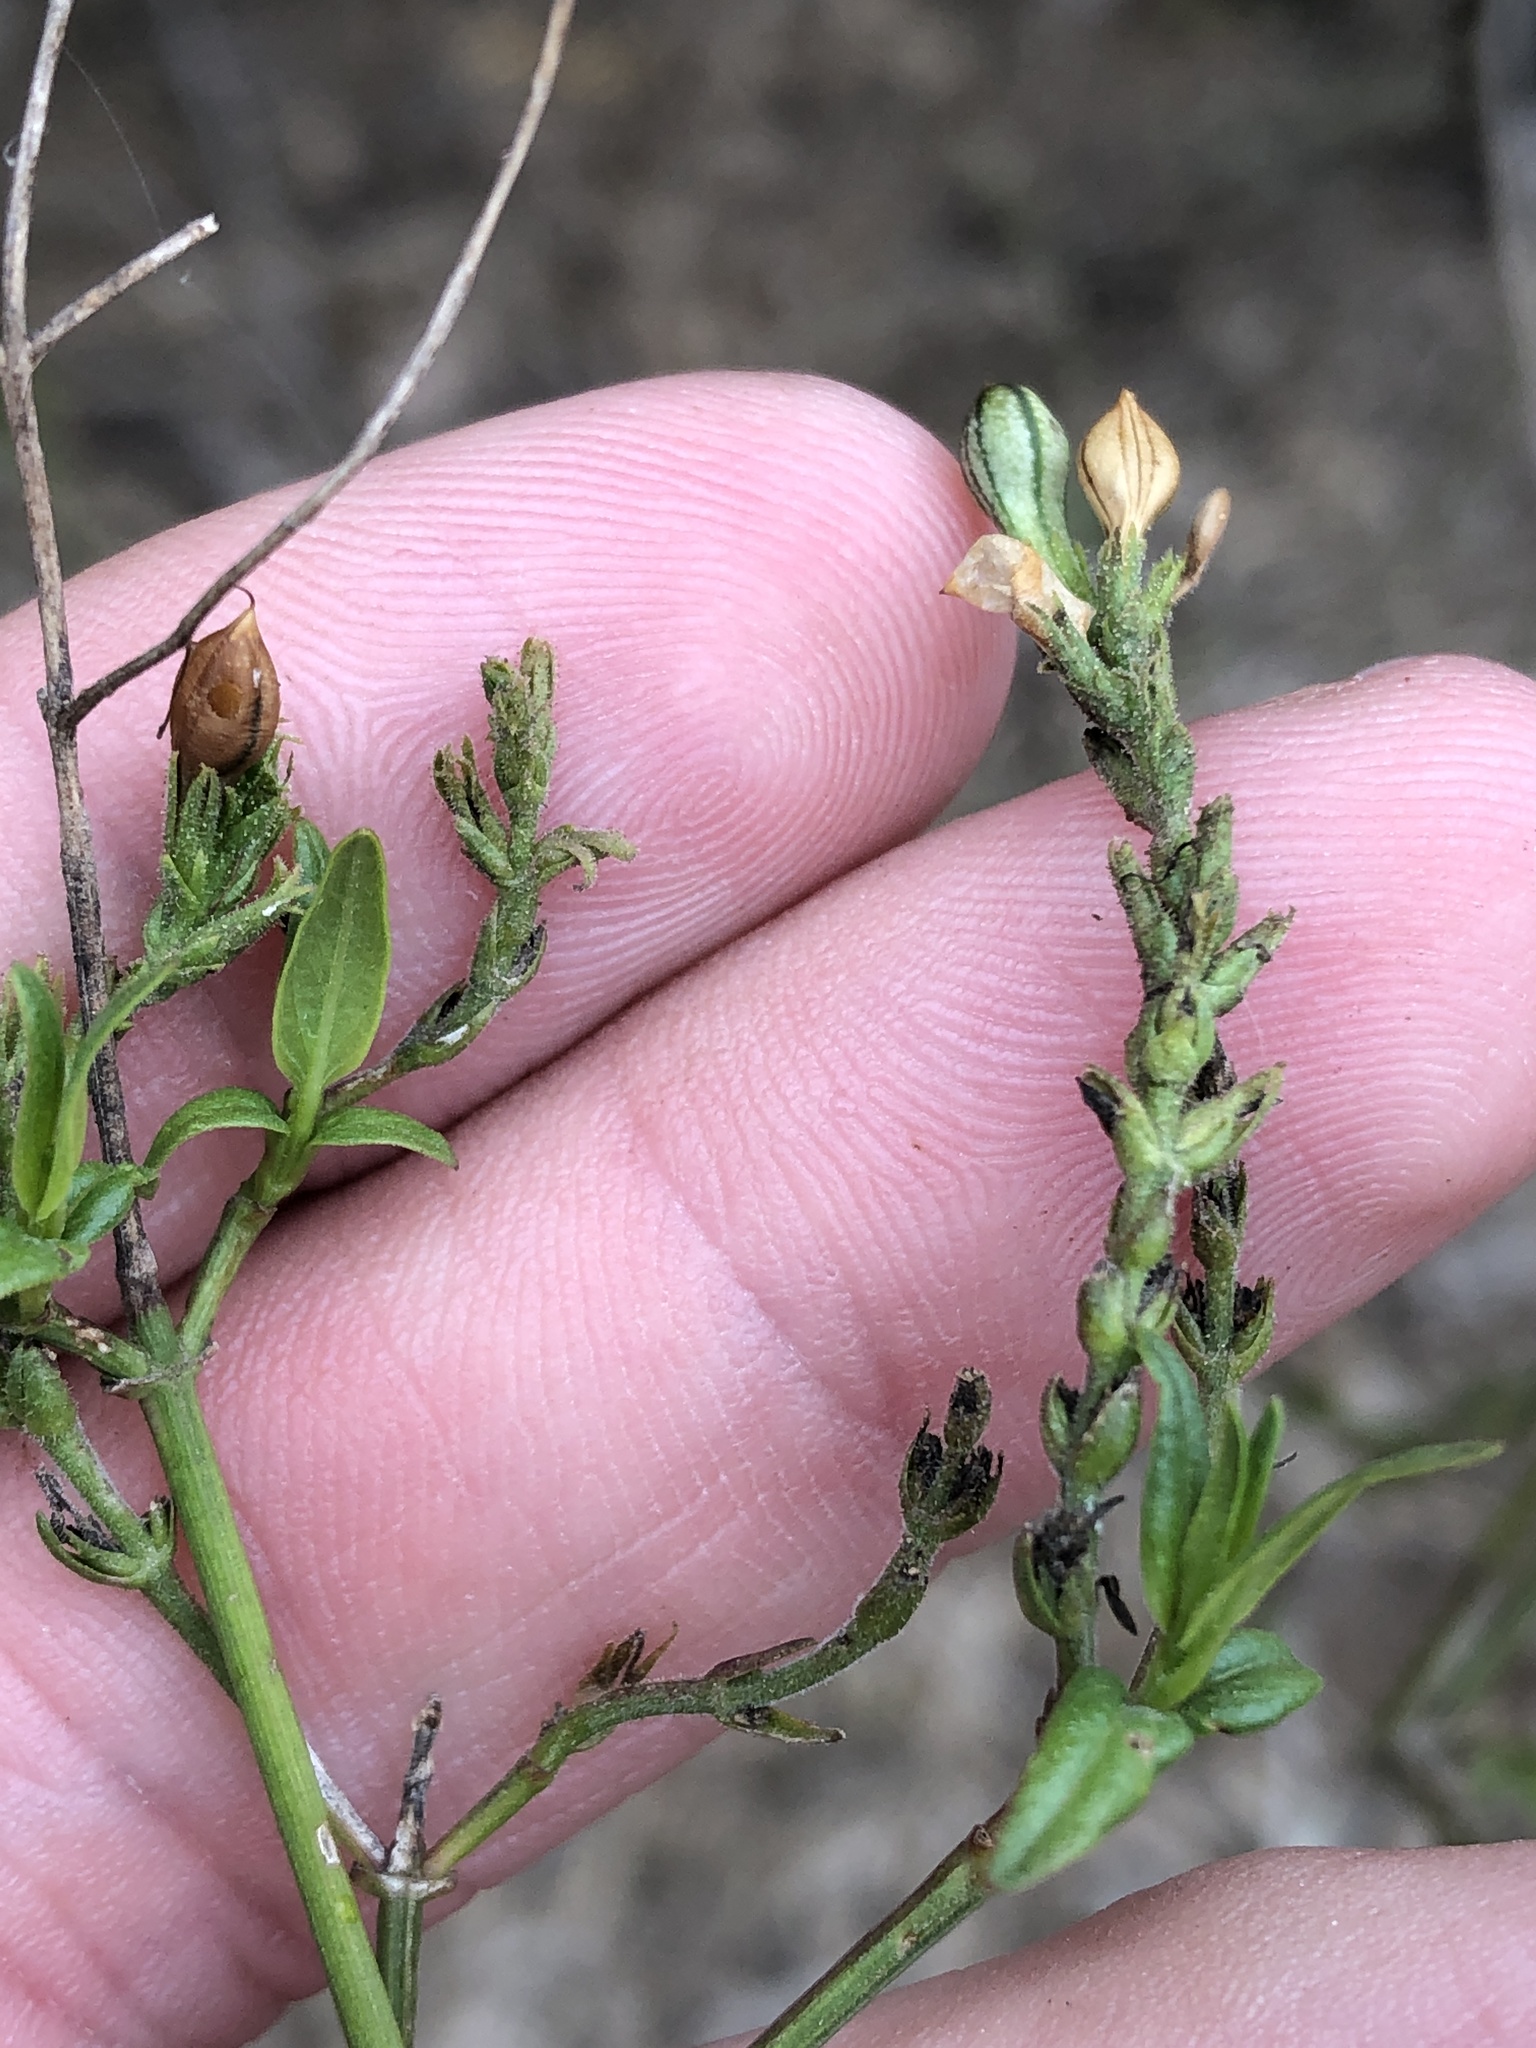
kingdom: Plantae
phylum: Tracheophyta
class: Magnoliopsida
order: Lamiales
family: Acanthaceae
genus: Carlowrightia
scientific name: Carlowrightia parviflora
